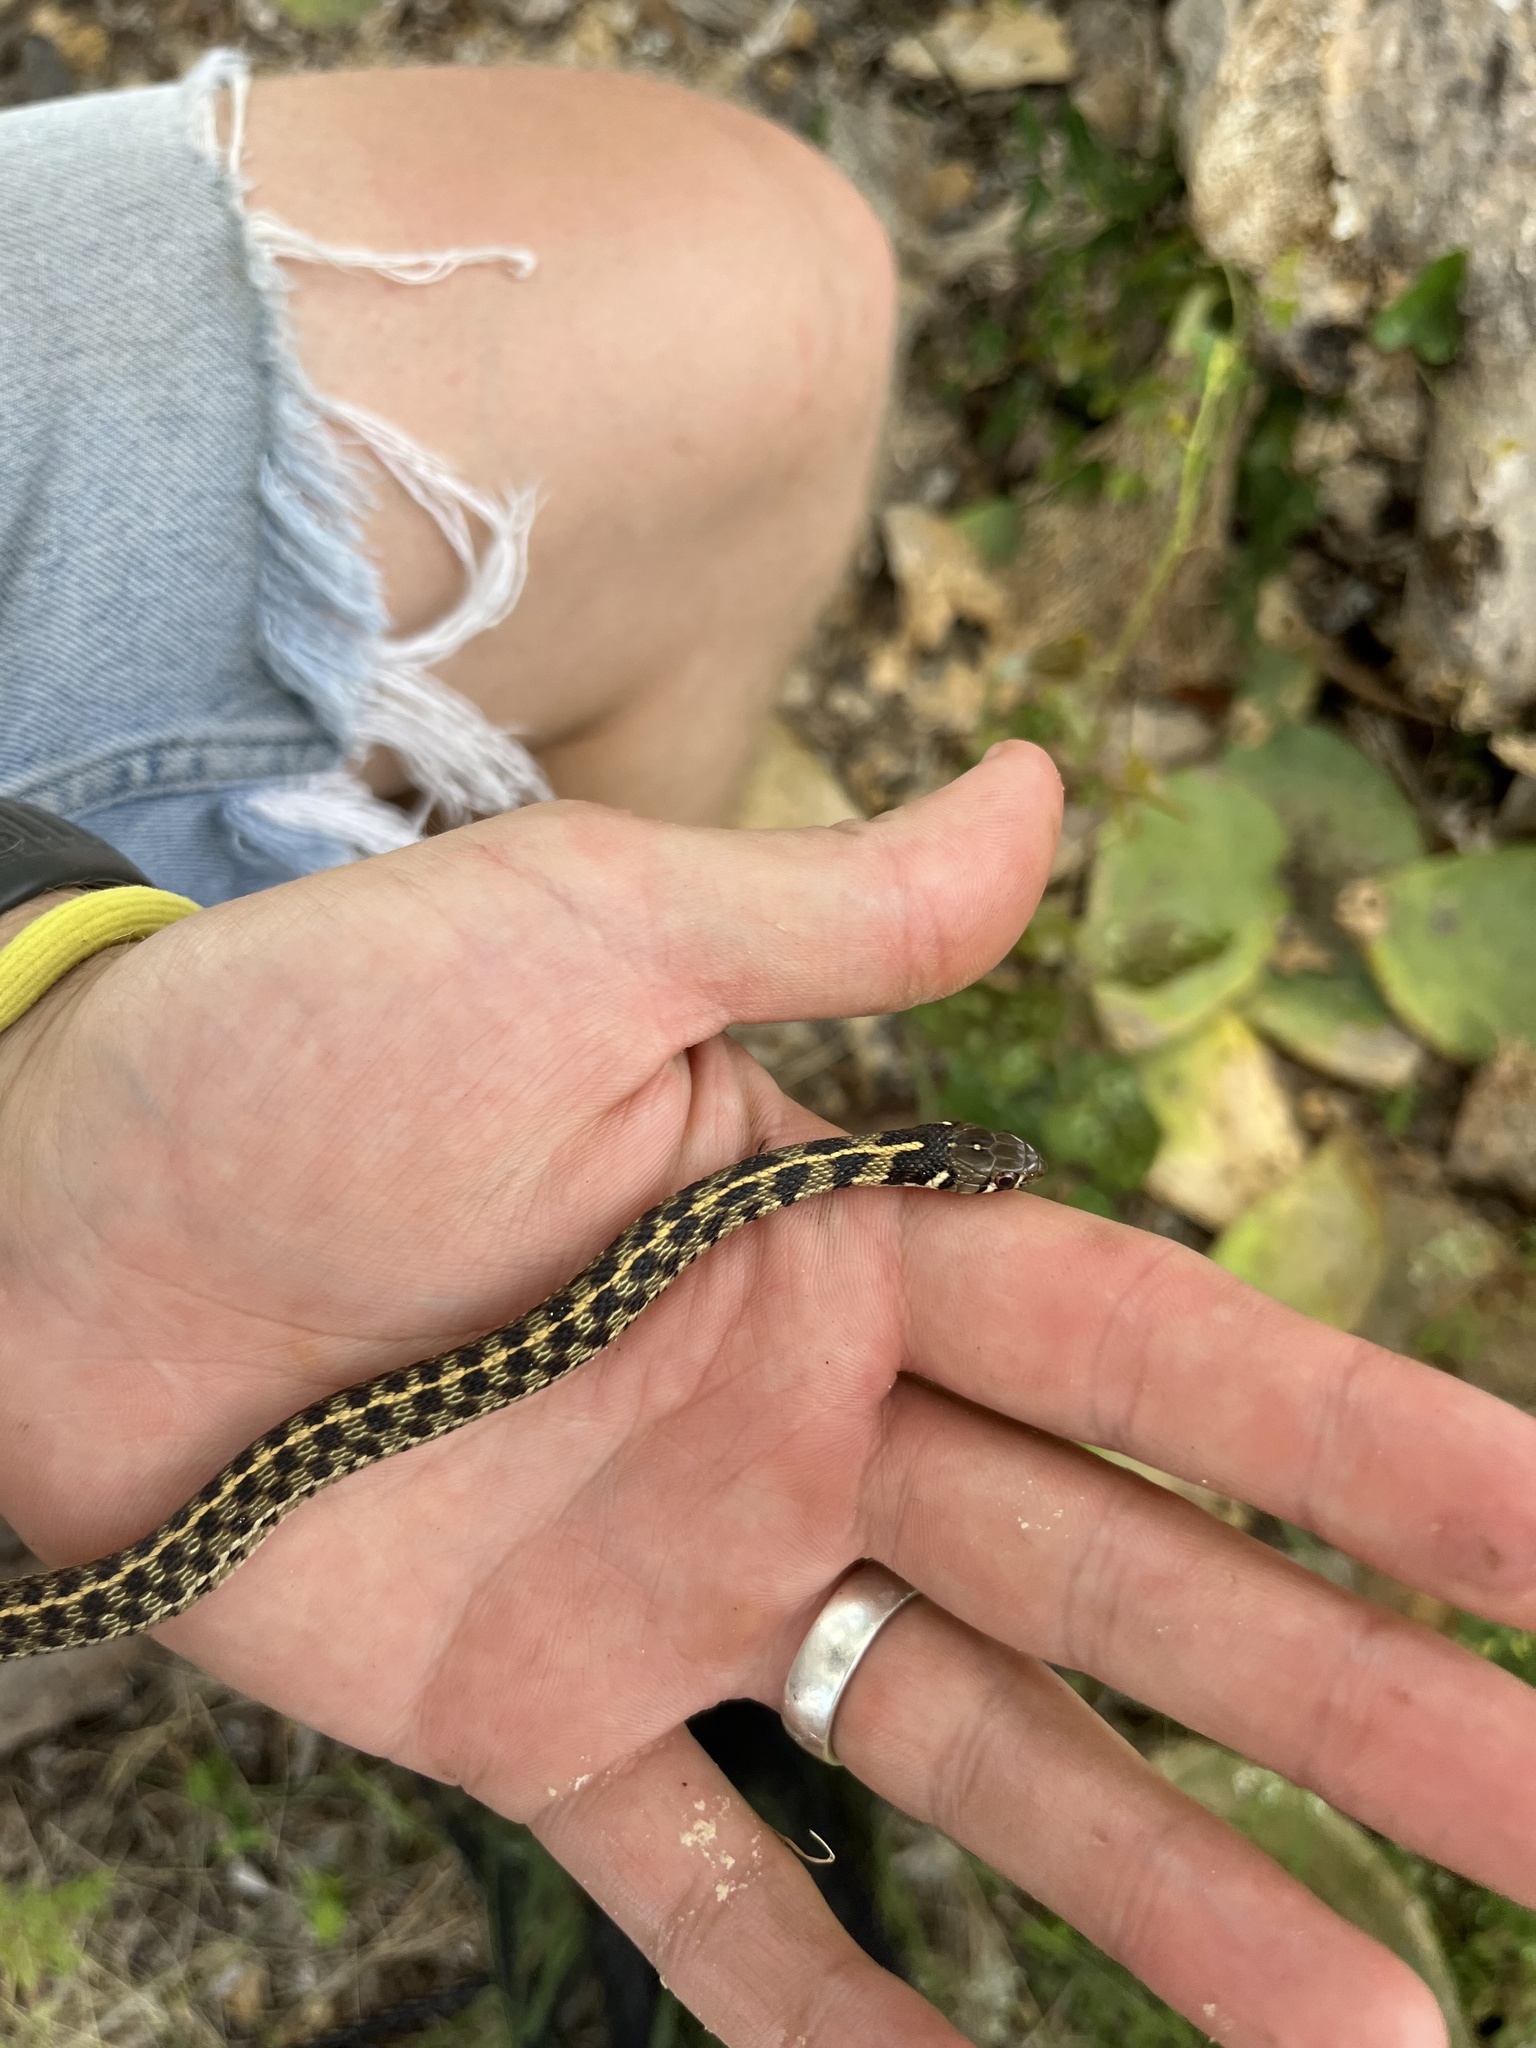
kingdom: Animalia
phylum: Chordata
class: Squamata
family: Colubridae
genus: Thamnophis
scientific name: Thamnophis marcianus
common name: Checkered garter snake
